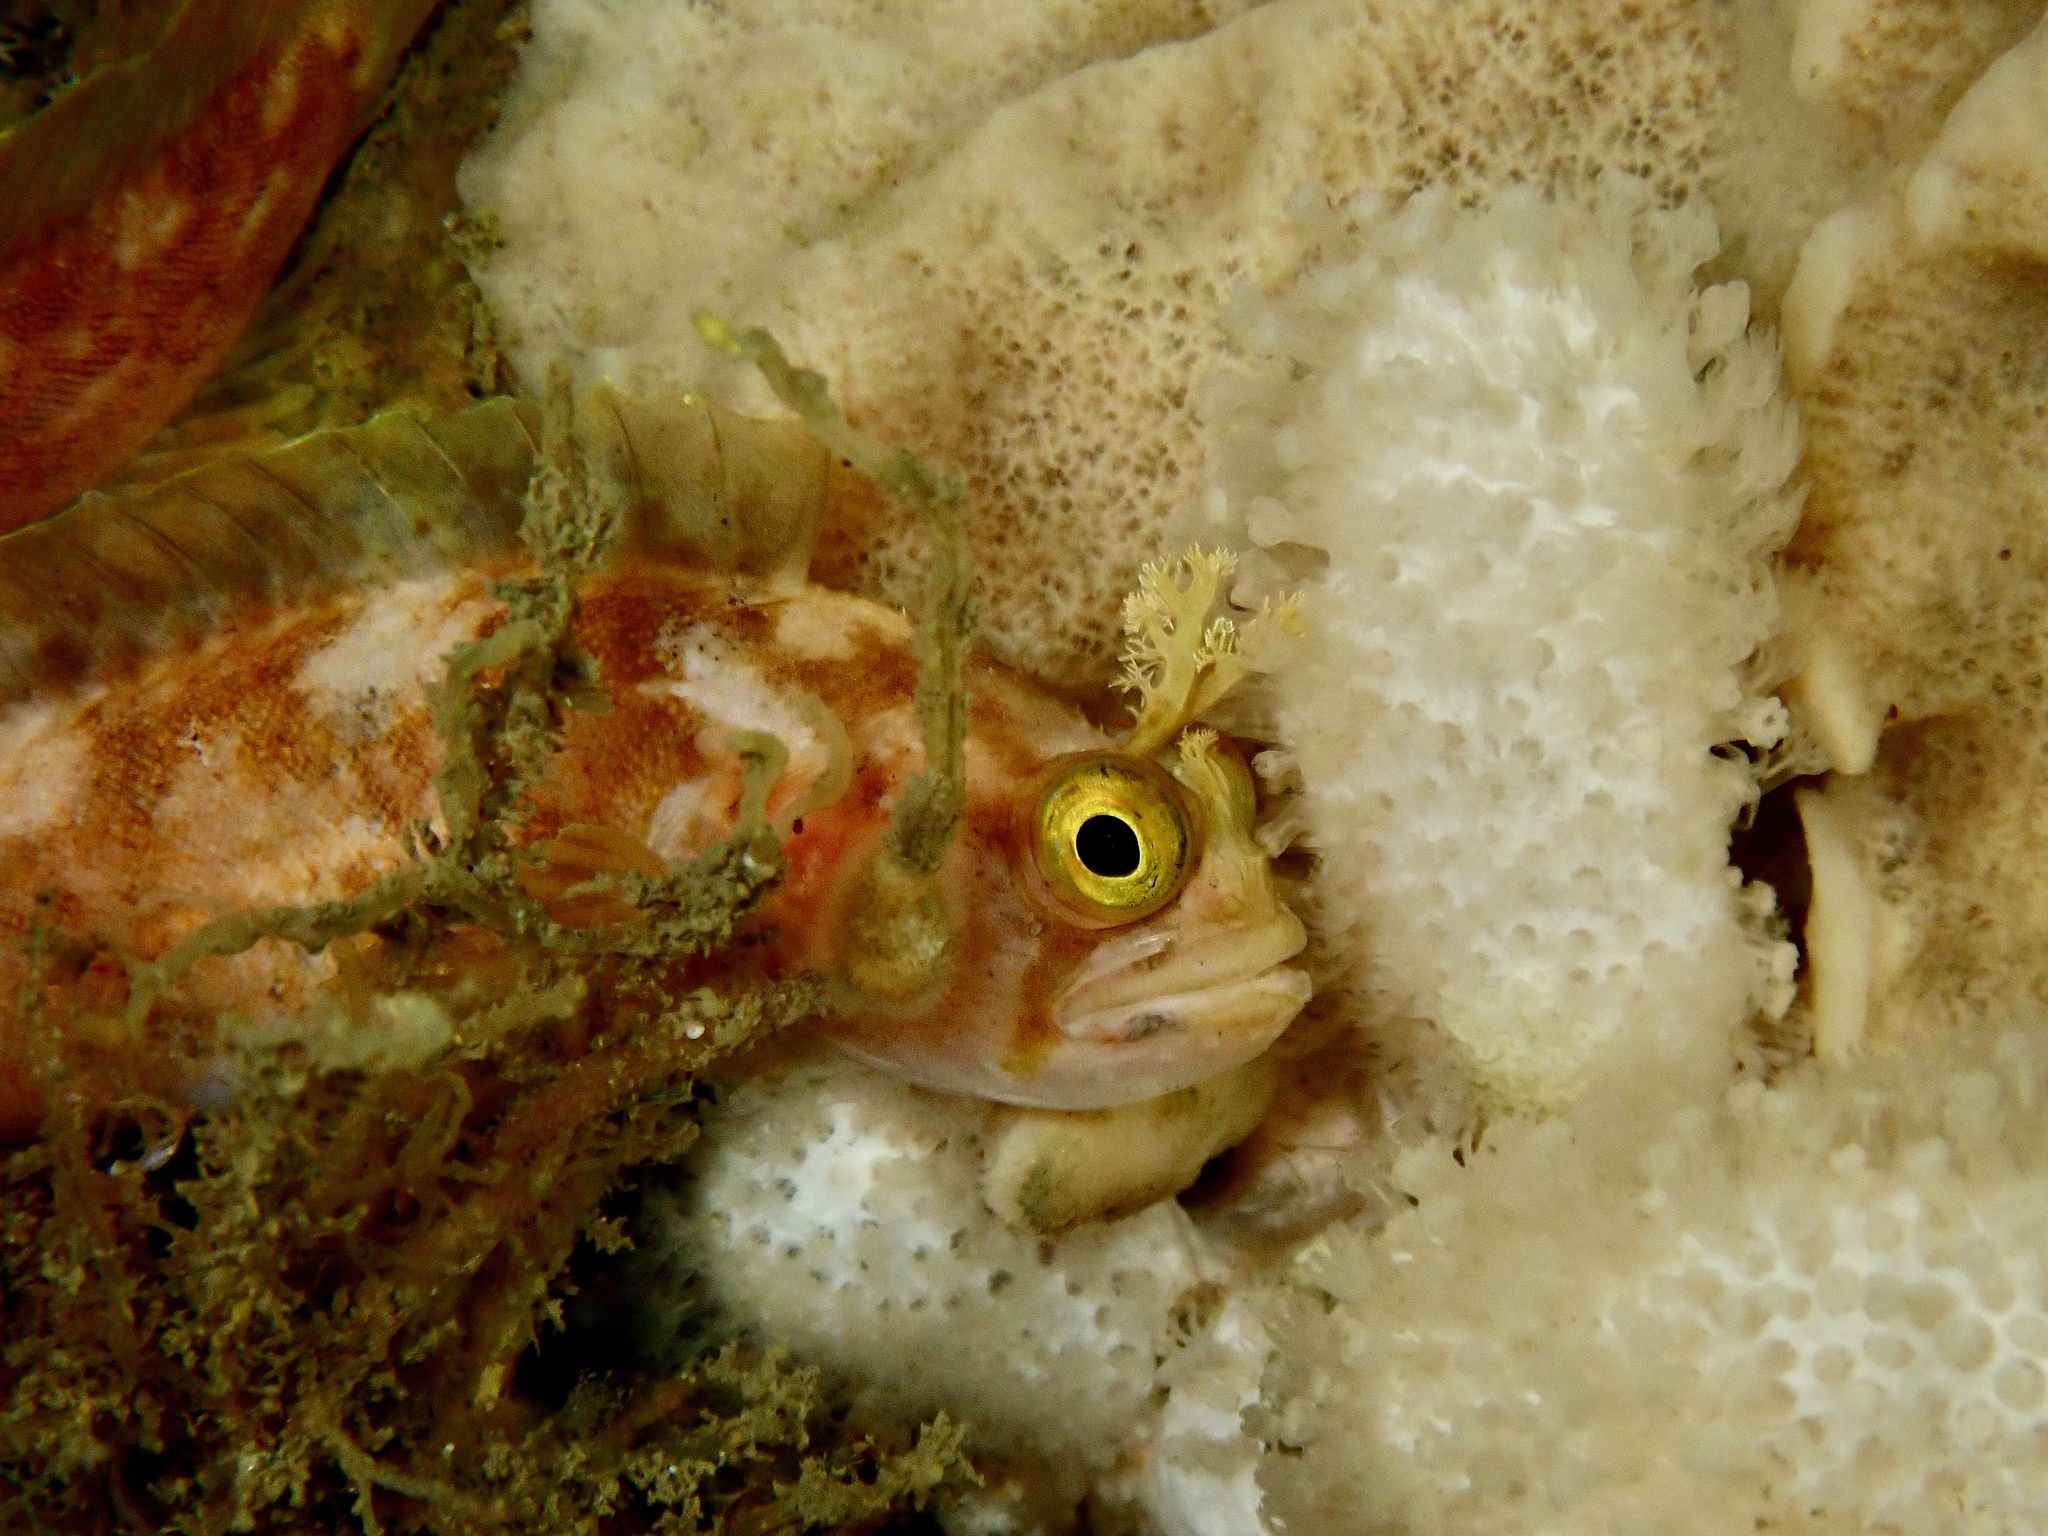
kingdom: Animalia
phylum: Chordata
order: Perciformes
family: Stichaeidae
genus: Chirolophis
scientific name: Chirolophis ascanii
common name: Yarrell's blenny
